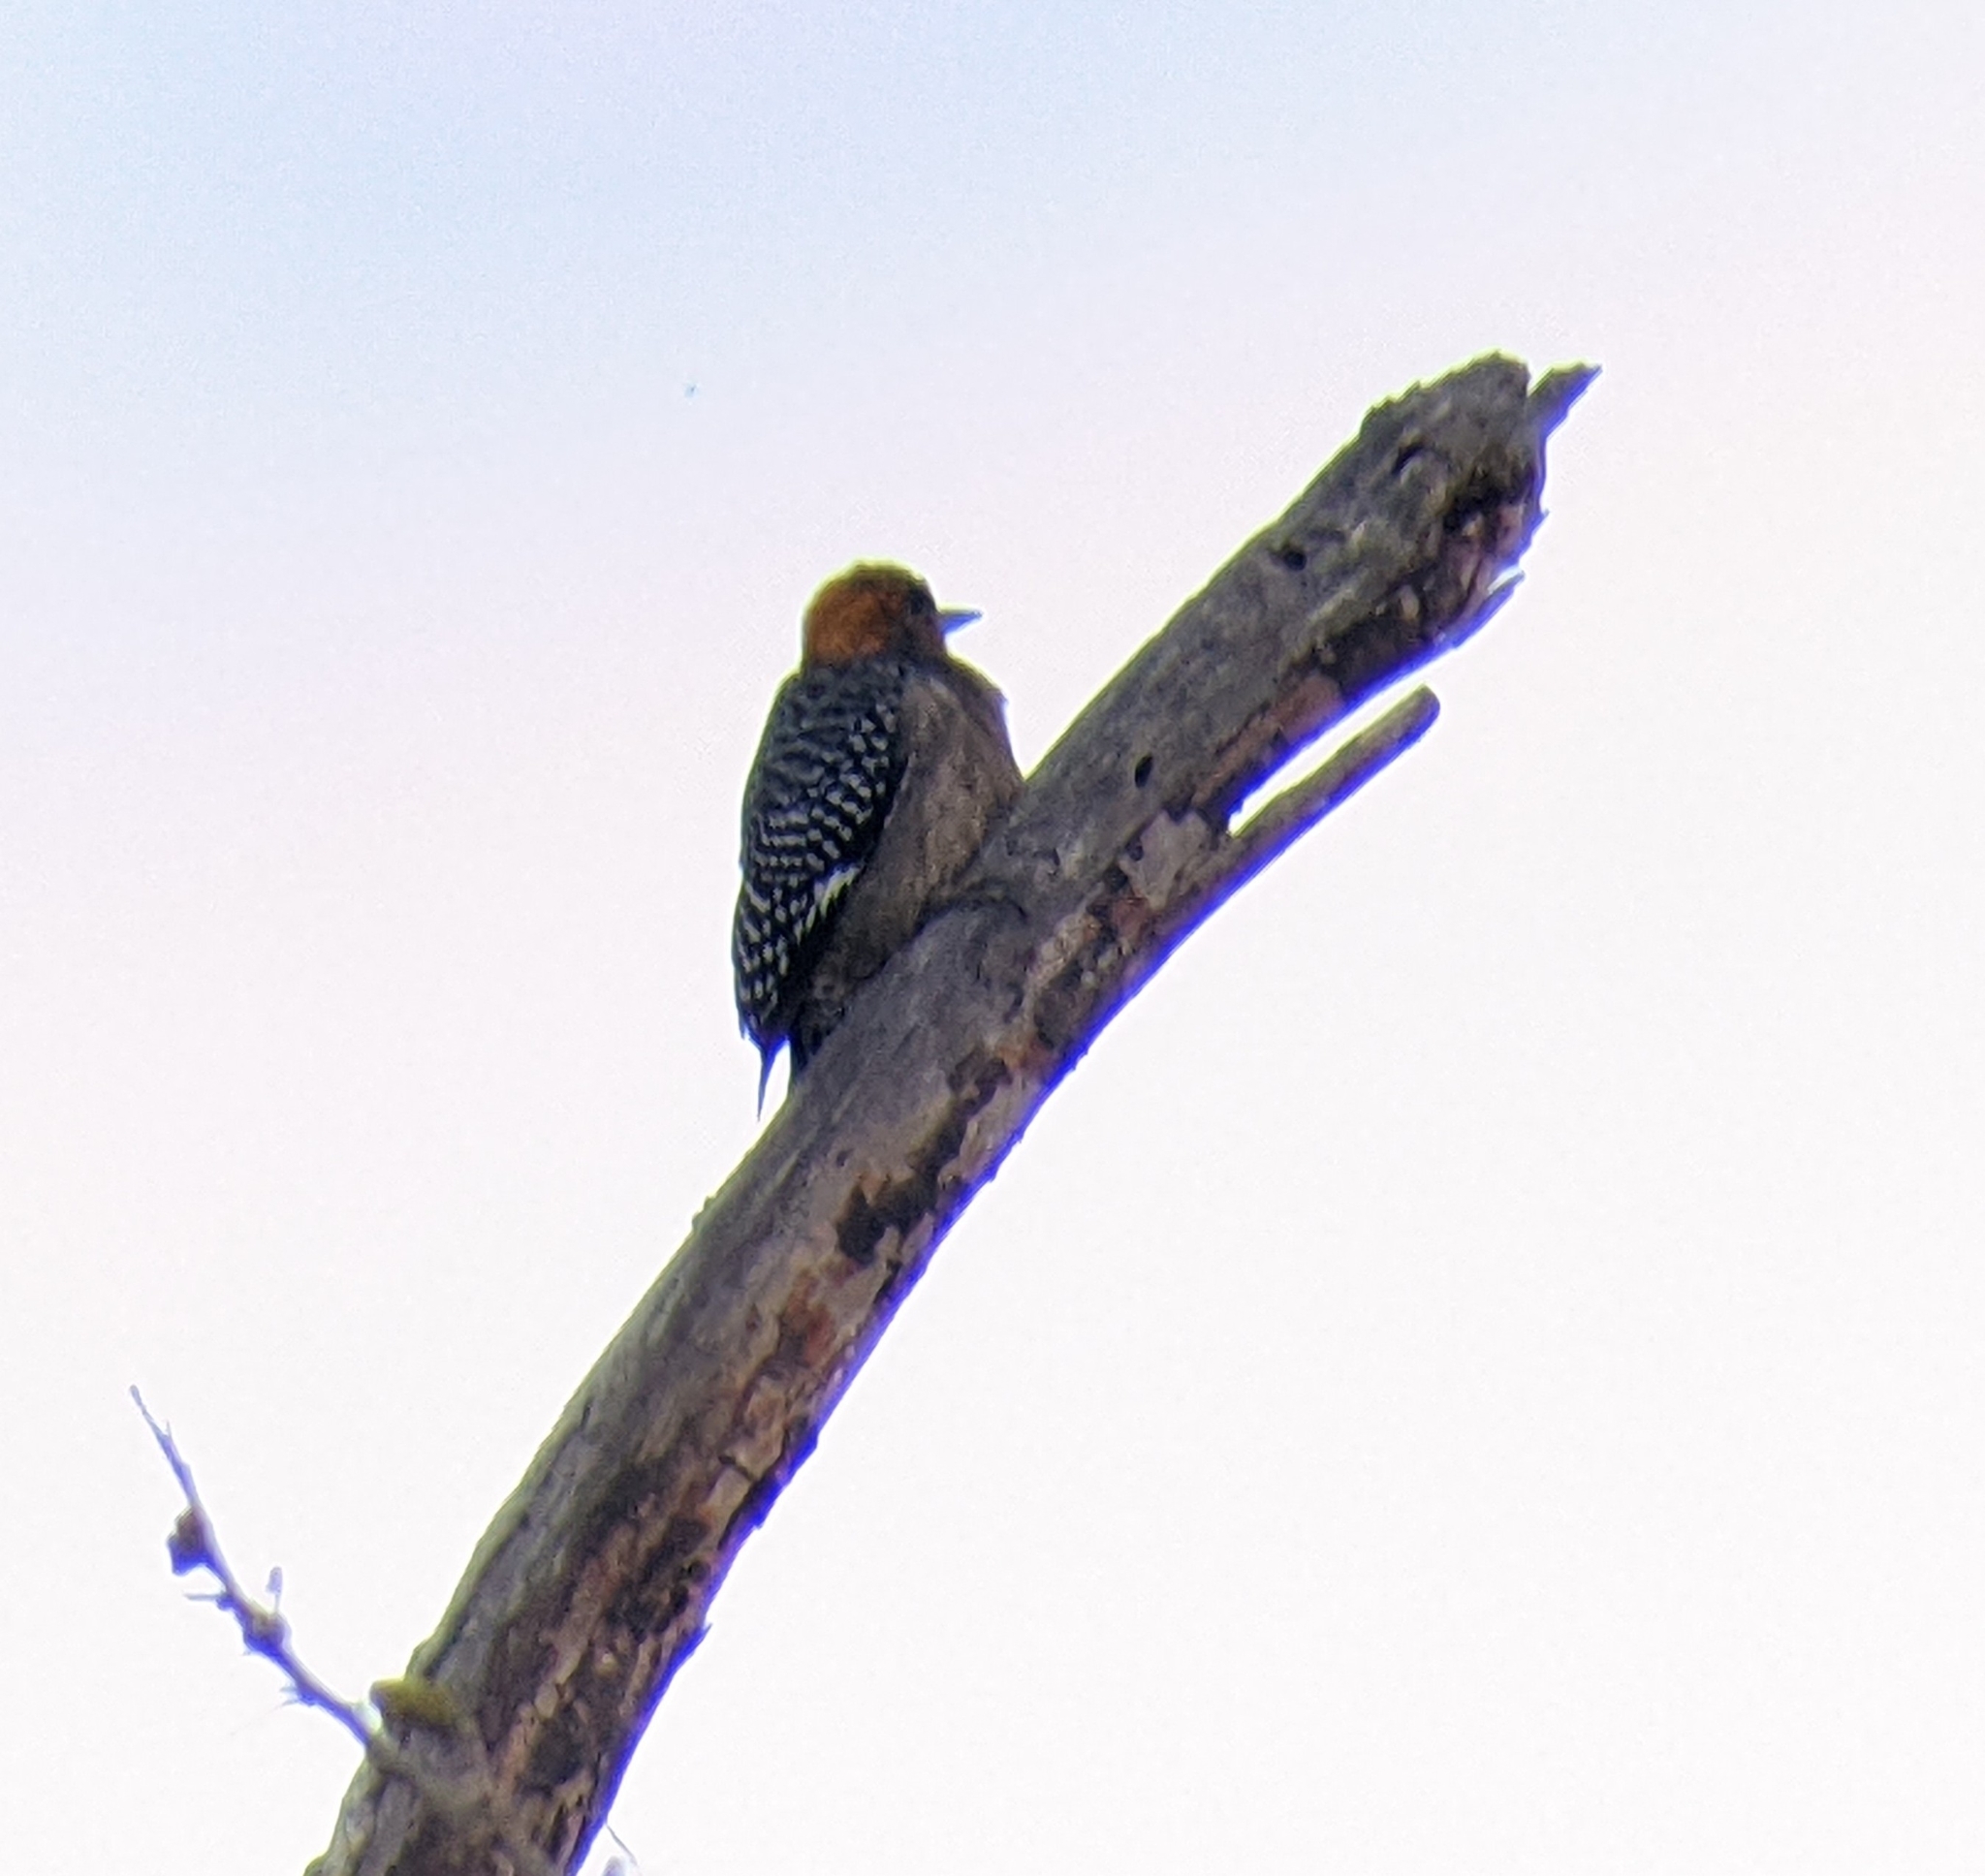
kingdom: Animalia
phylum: Chordata
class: Aves
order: Piciformes
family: Picidae
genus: Melanerpes
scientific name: Melanerpes chrysogenys
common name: Golden-cheeked woodpecker
